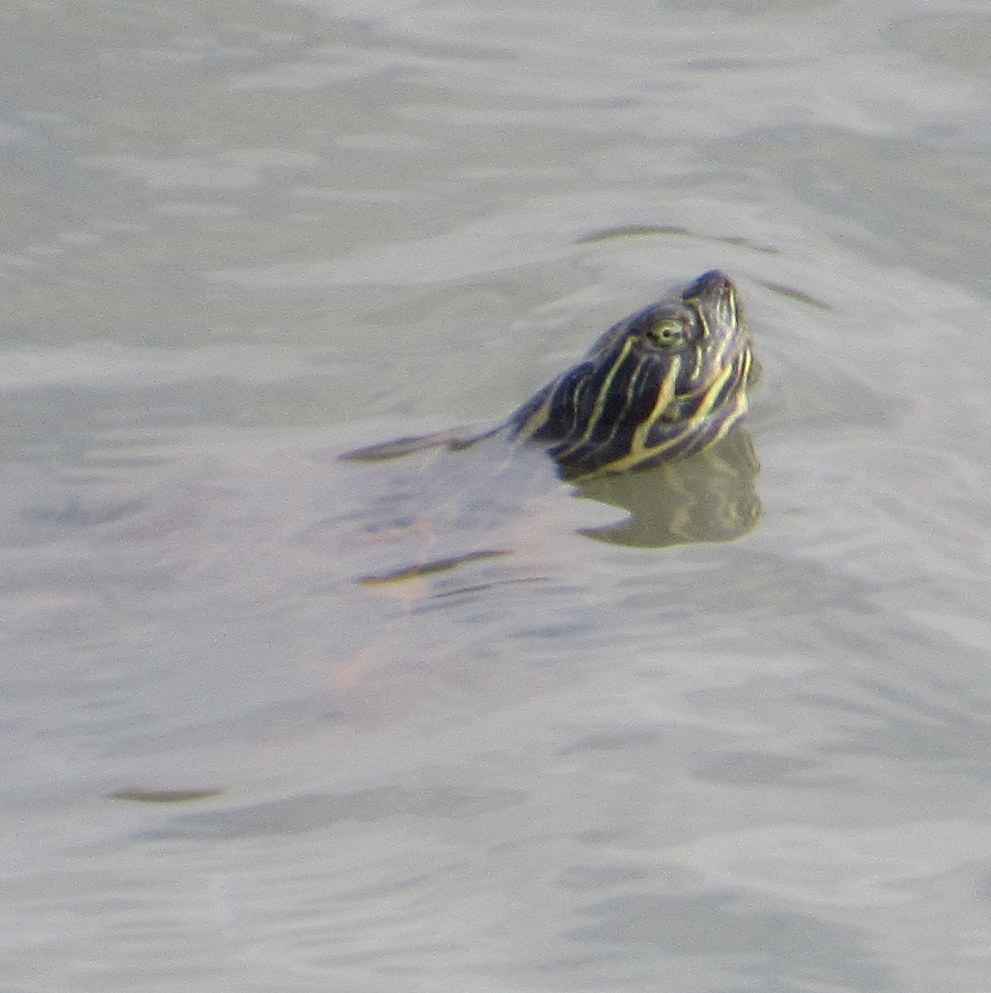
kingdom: Animalia
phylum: Chordata
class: Testudines
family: Emydidae
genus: Pseudemys
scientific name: Pseudemys concinna
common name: Eastern river cooter
